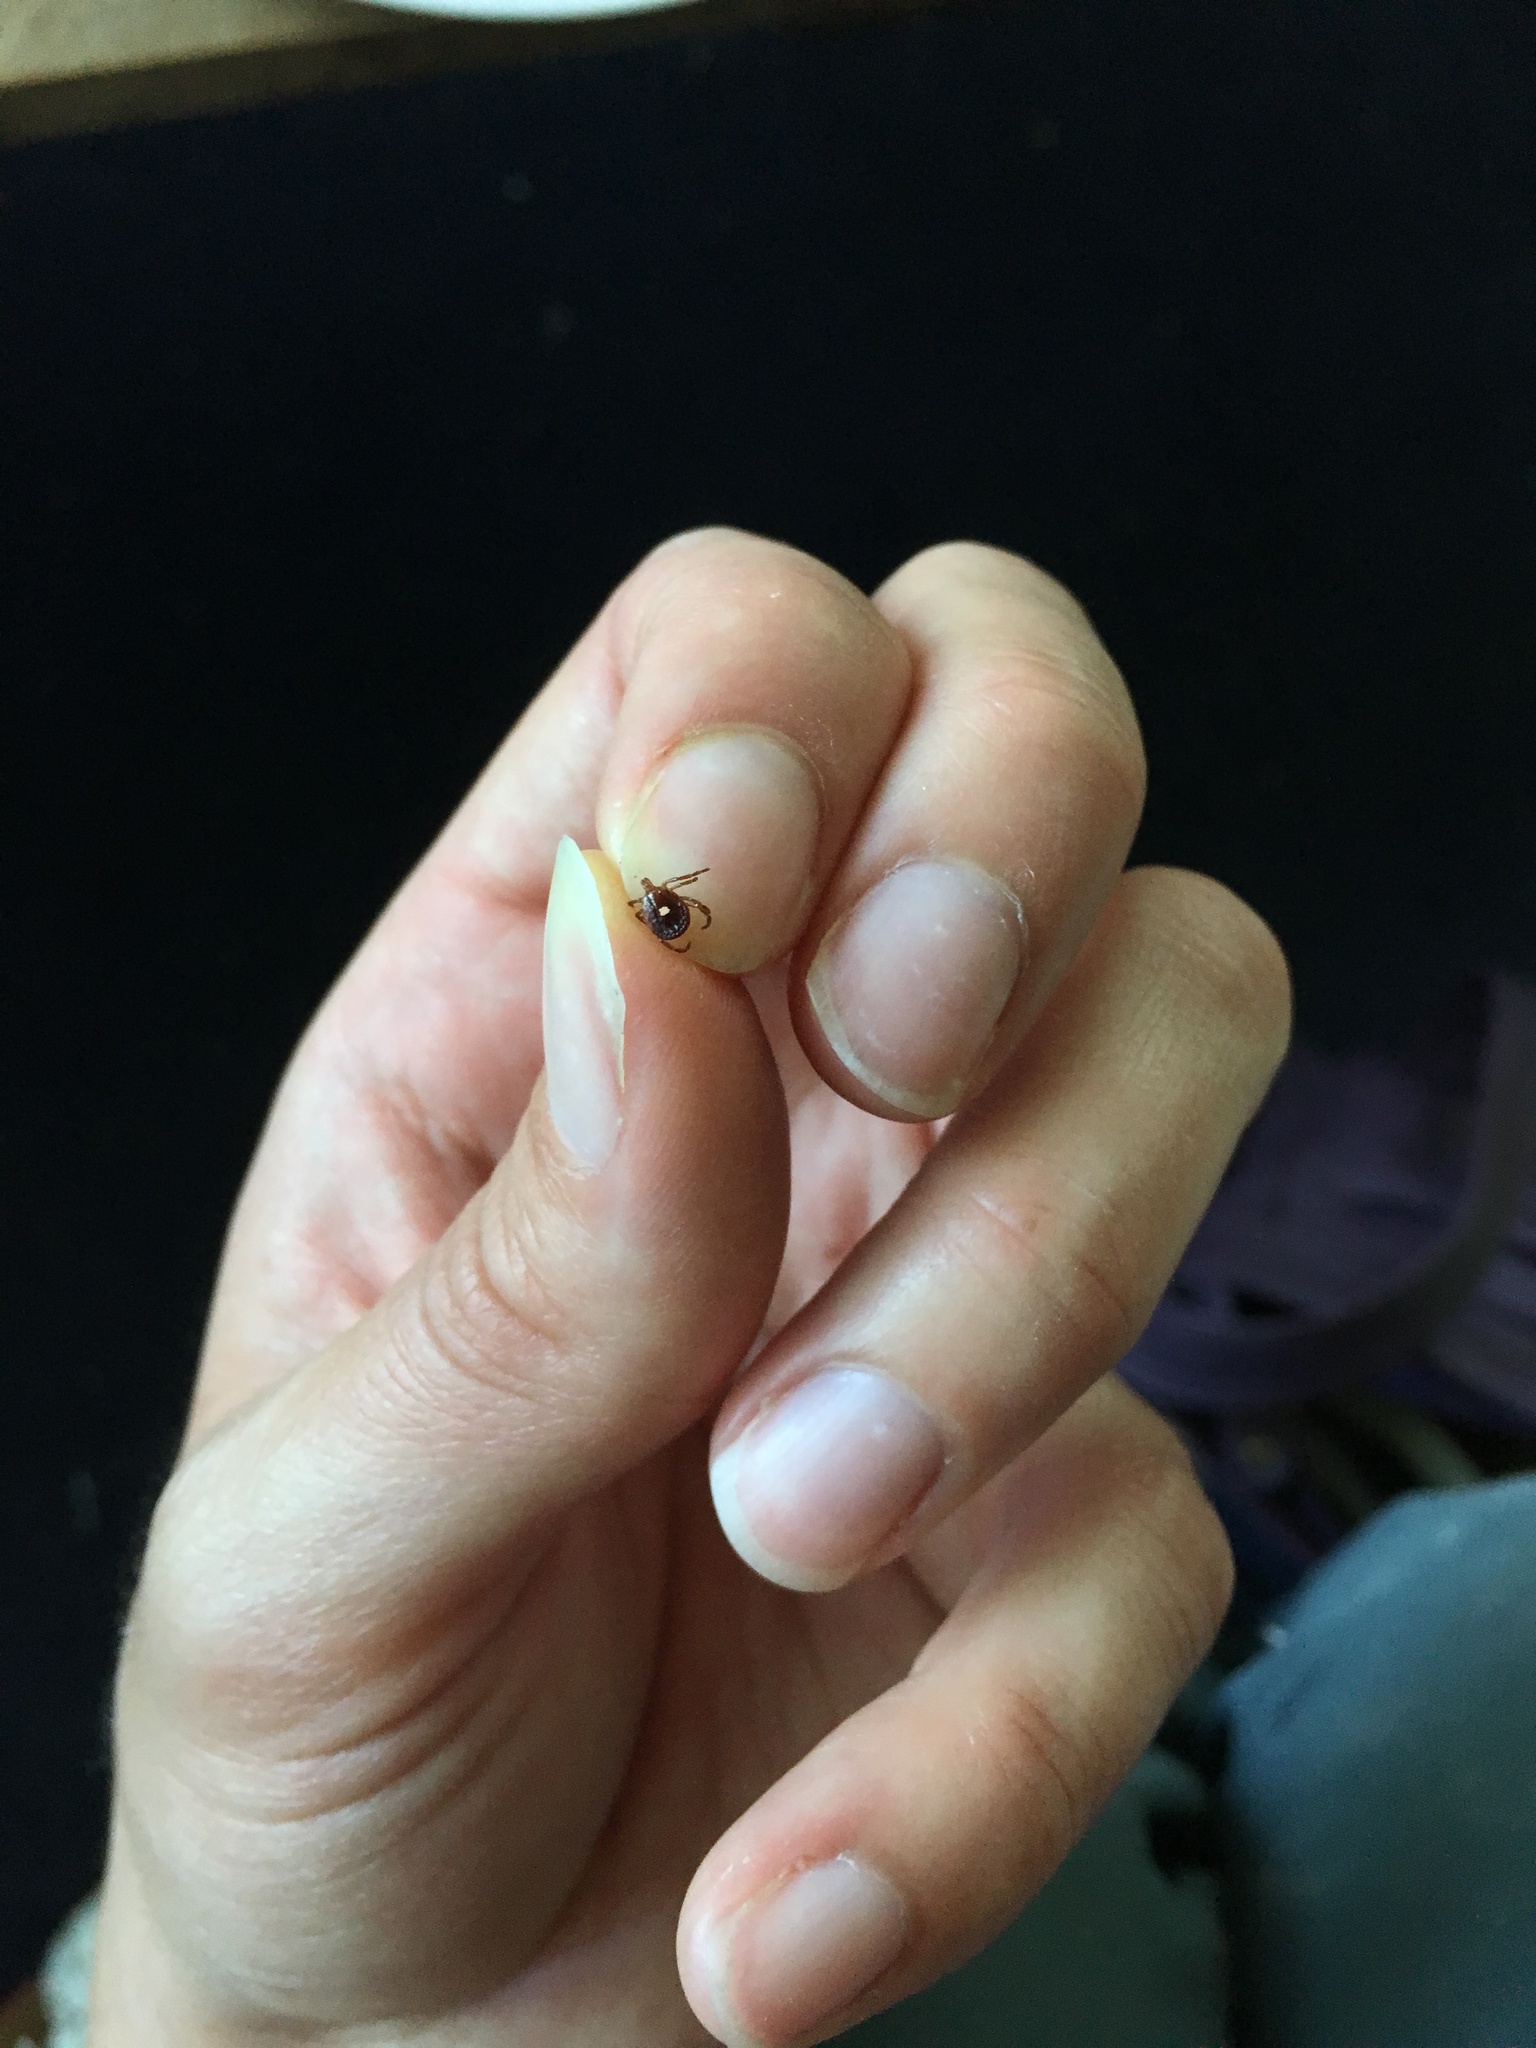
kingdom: Animalia
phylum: Arthropoda
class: Arachnida
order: Ixodida
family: Ixodidae
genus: Amblyomma
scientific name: Amblyomma americanum
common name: Lone star tick
